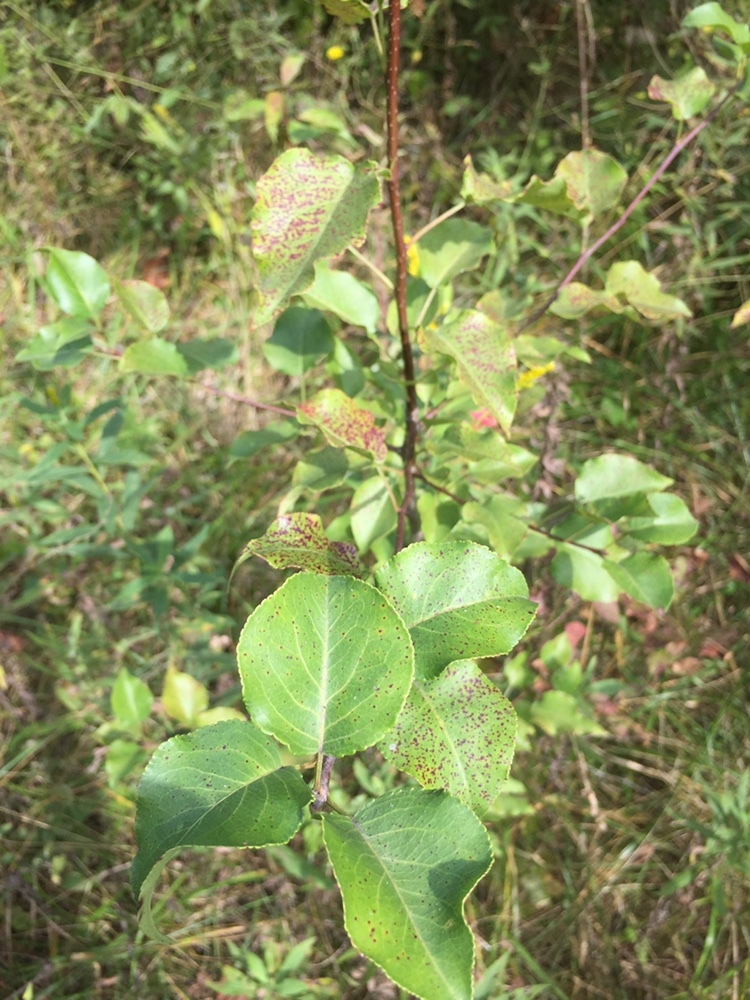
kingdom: Plantae
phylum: Tracheophyta
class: Magnoliopsida
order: Rosales
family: Rosaceae
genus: Pyrus
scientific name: Pyrus calleryana
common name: Callery pear
